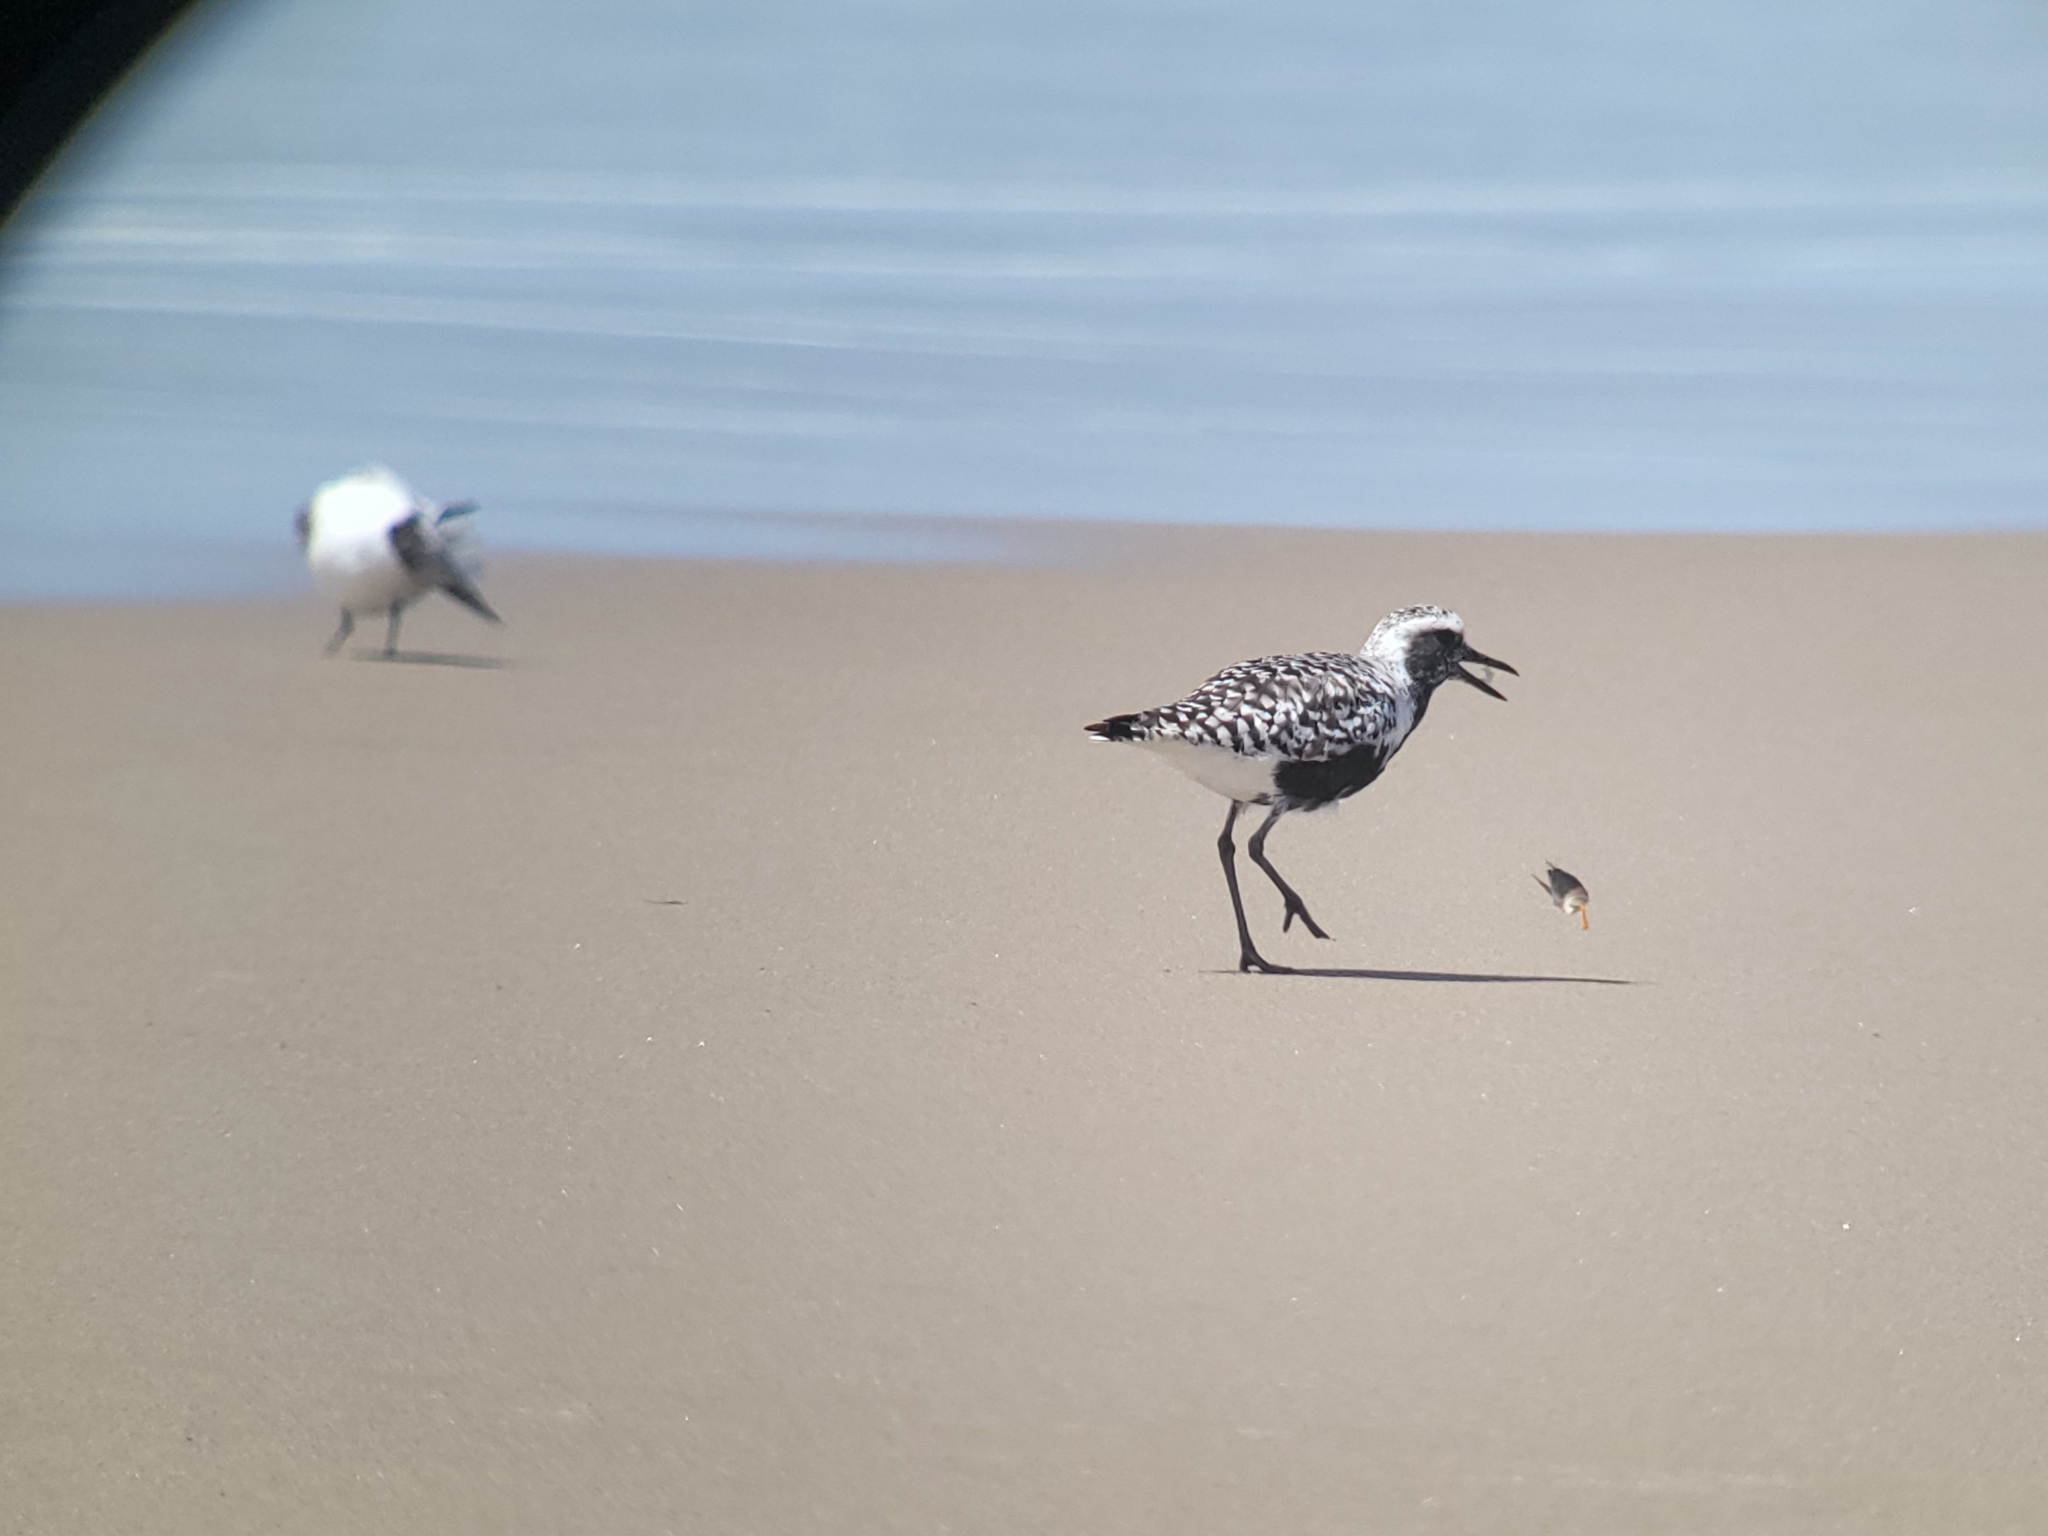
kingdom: Animalia
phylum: Chordata
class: Aves
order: Charadriiformes
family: Charadriidae
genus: Pluvialis
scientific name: Pluvialis squatarola
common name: Grey plover
